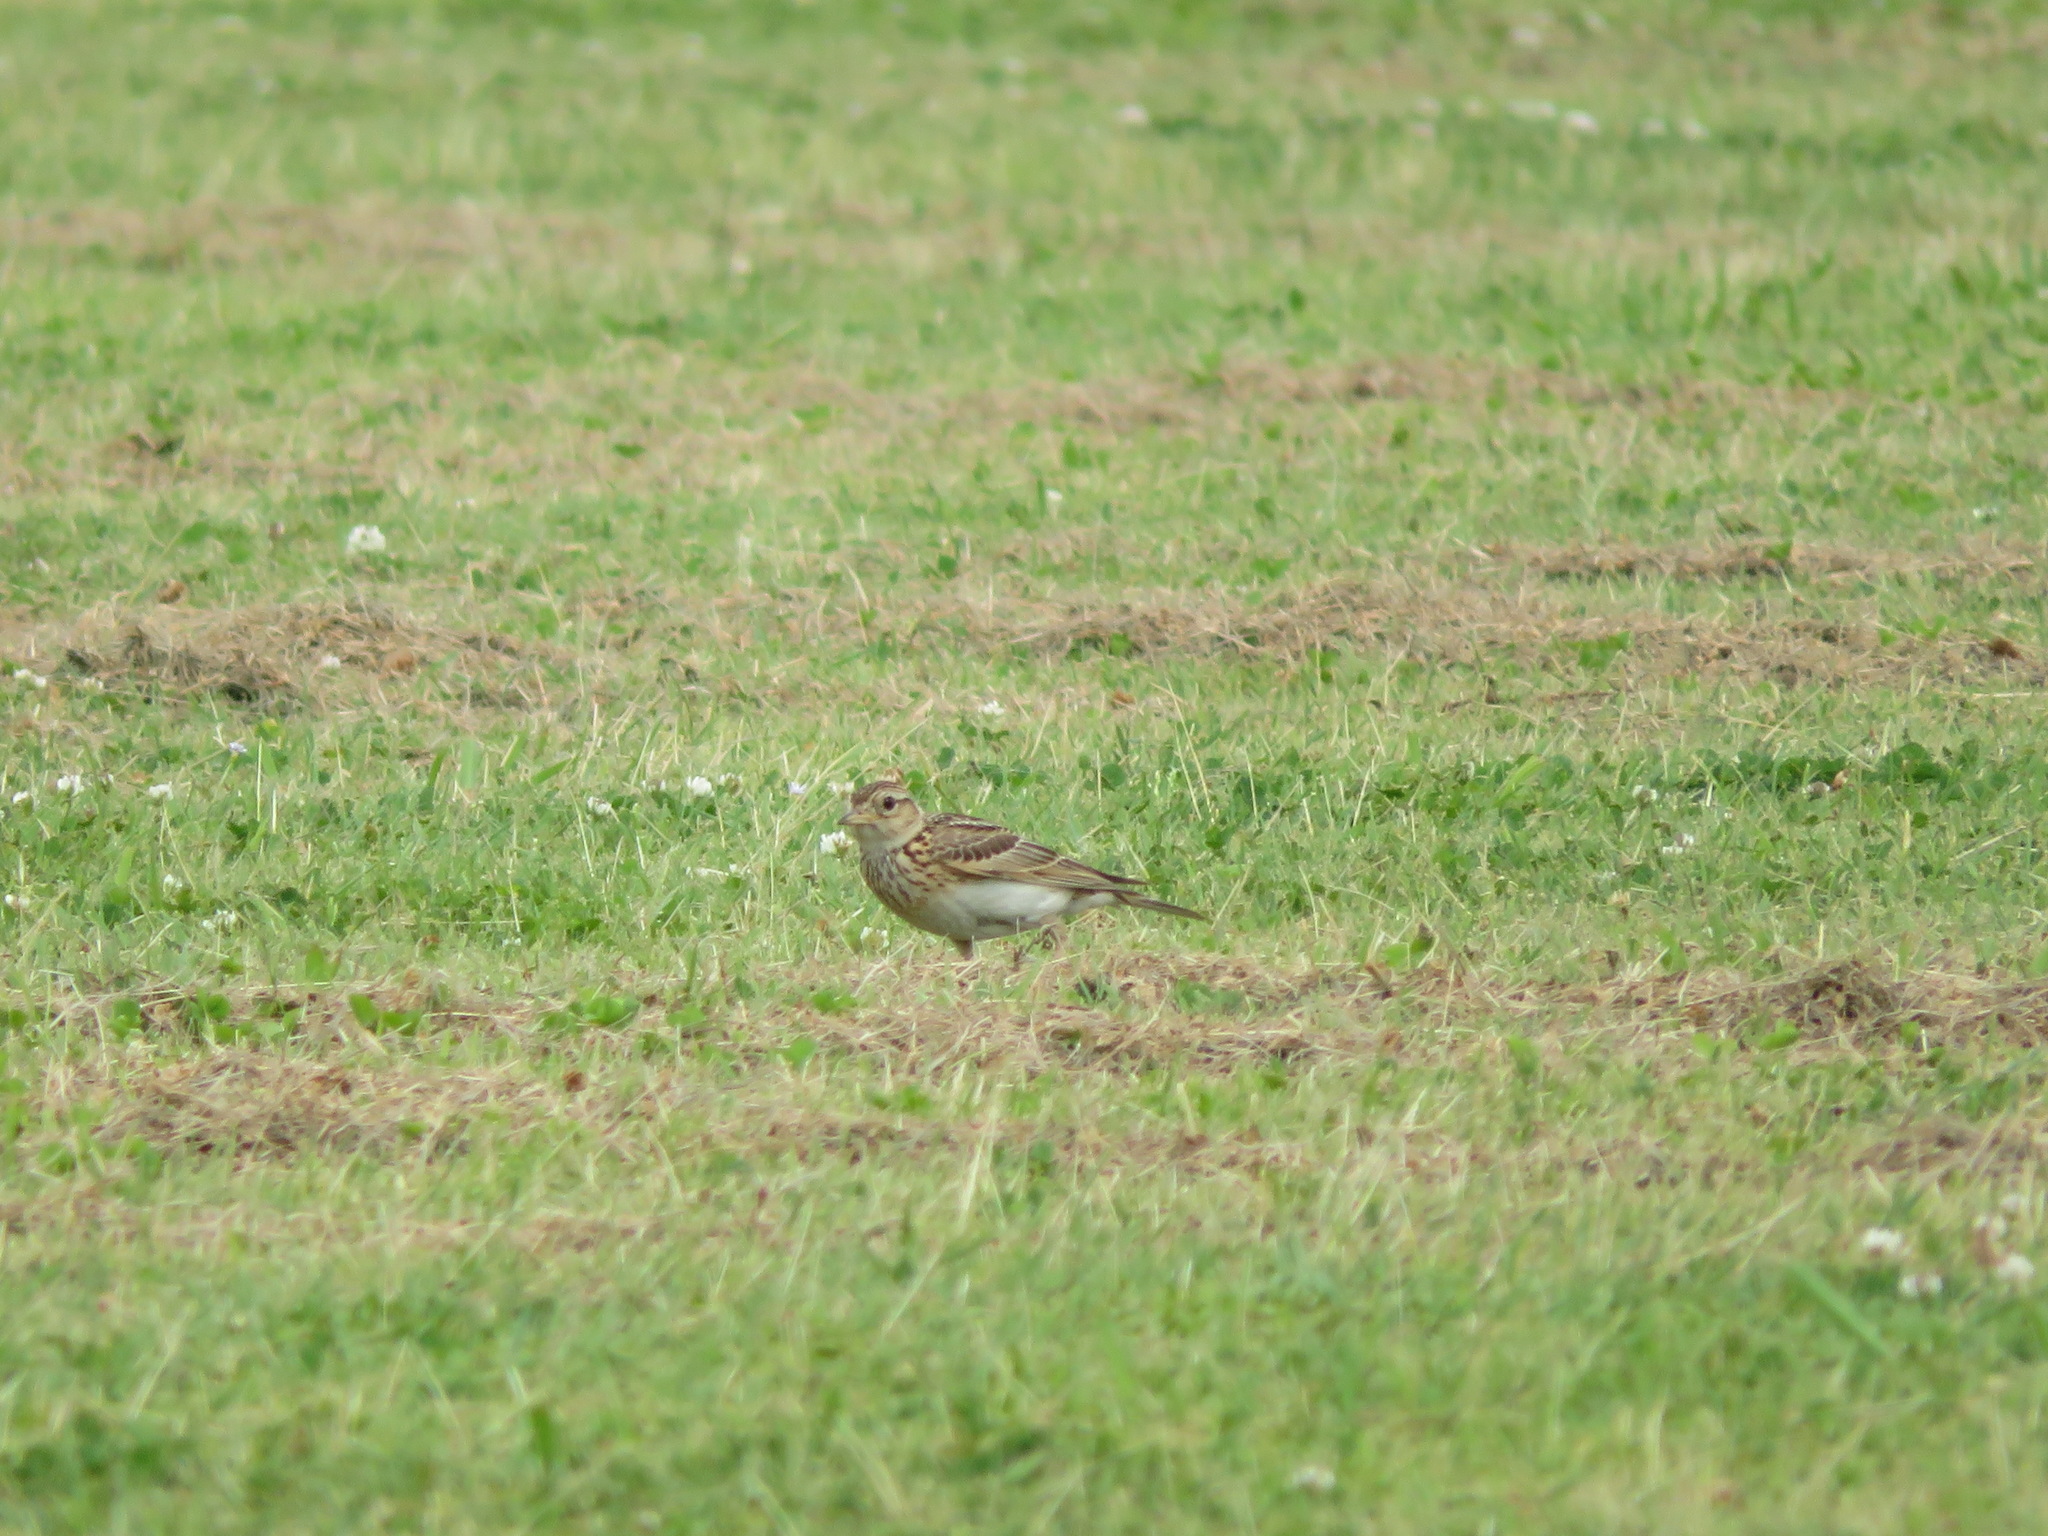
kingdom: Animalia
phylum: Chordata
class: Aves
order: Passeriformes
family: Alaudidae
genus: Alauda
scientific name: Alauda arvensis
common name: Eurasian skylark
